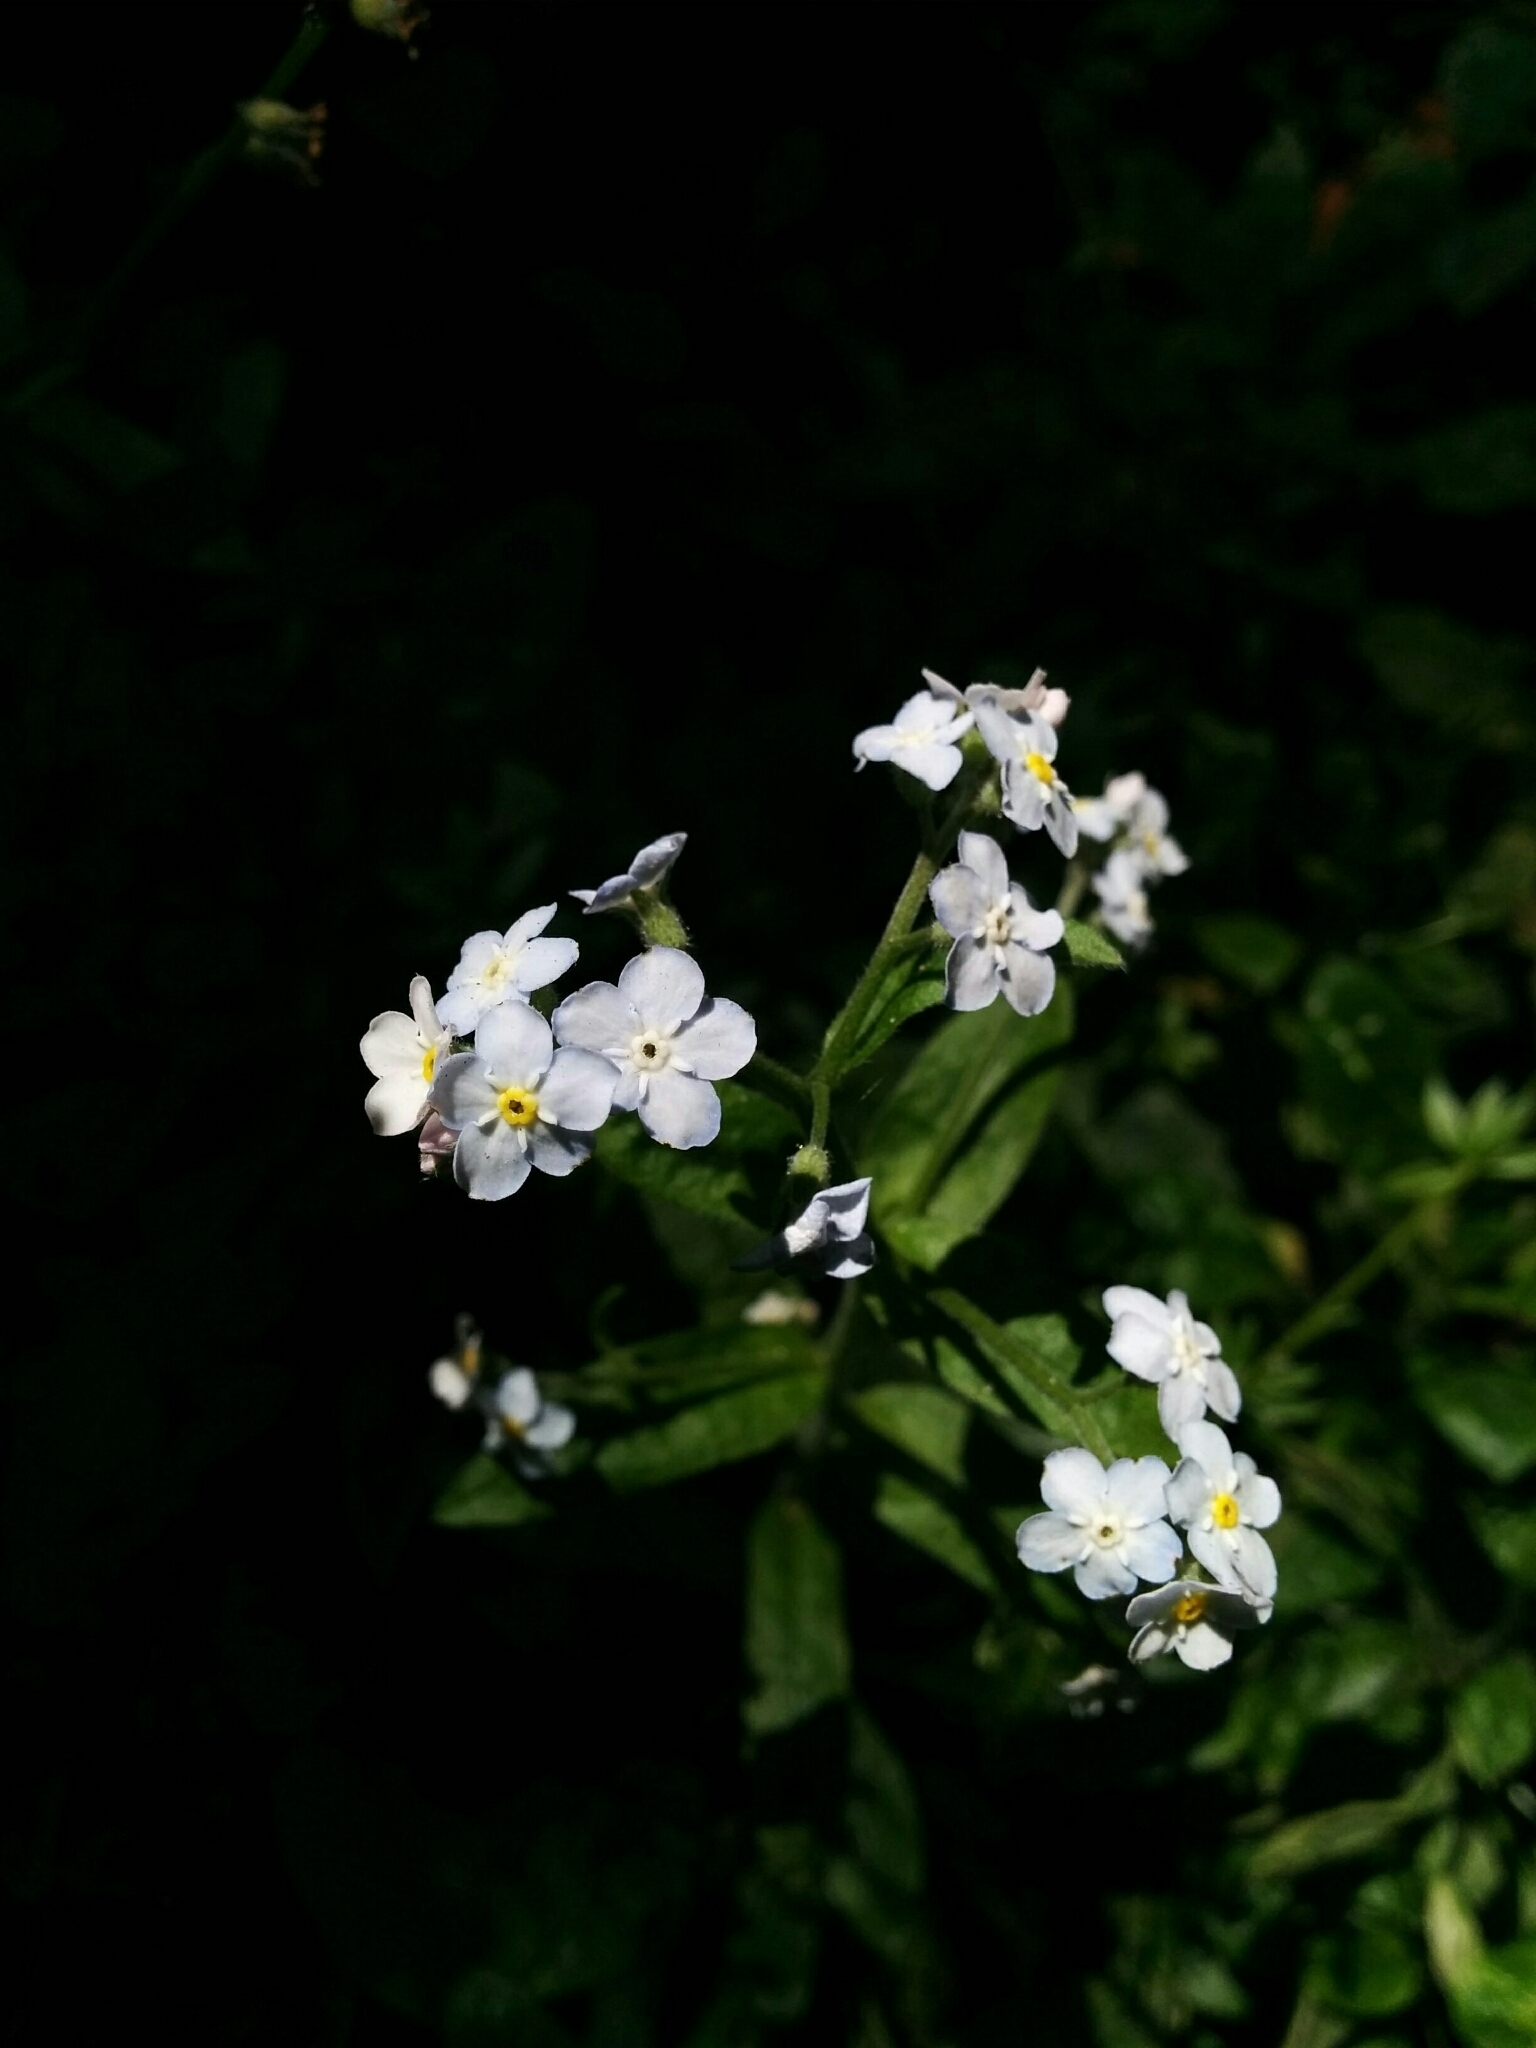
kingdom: Plantae
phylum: Tracheophyta
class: Magnoliopsida
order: Boraginales
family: Boraginaceae
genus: Myosotis
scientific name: Myosotis latifolia
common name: Broadleaf forget-me-not
